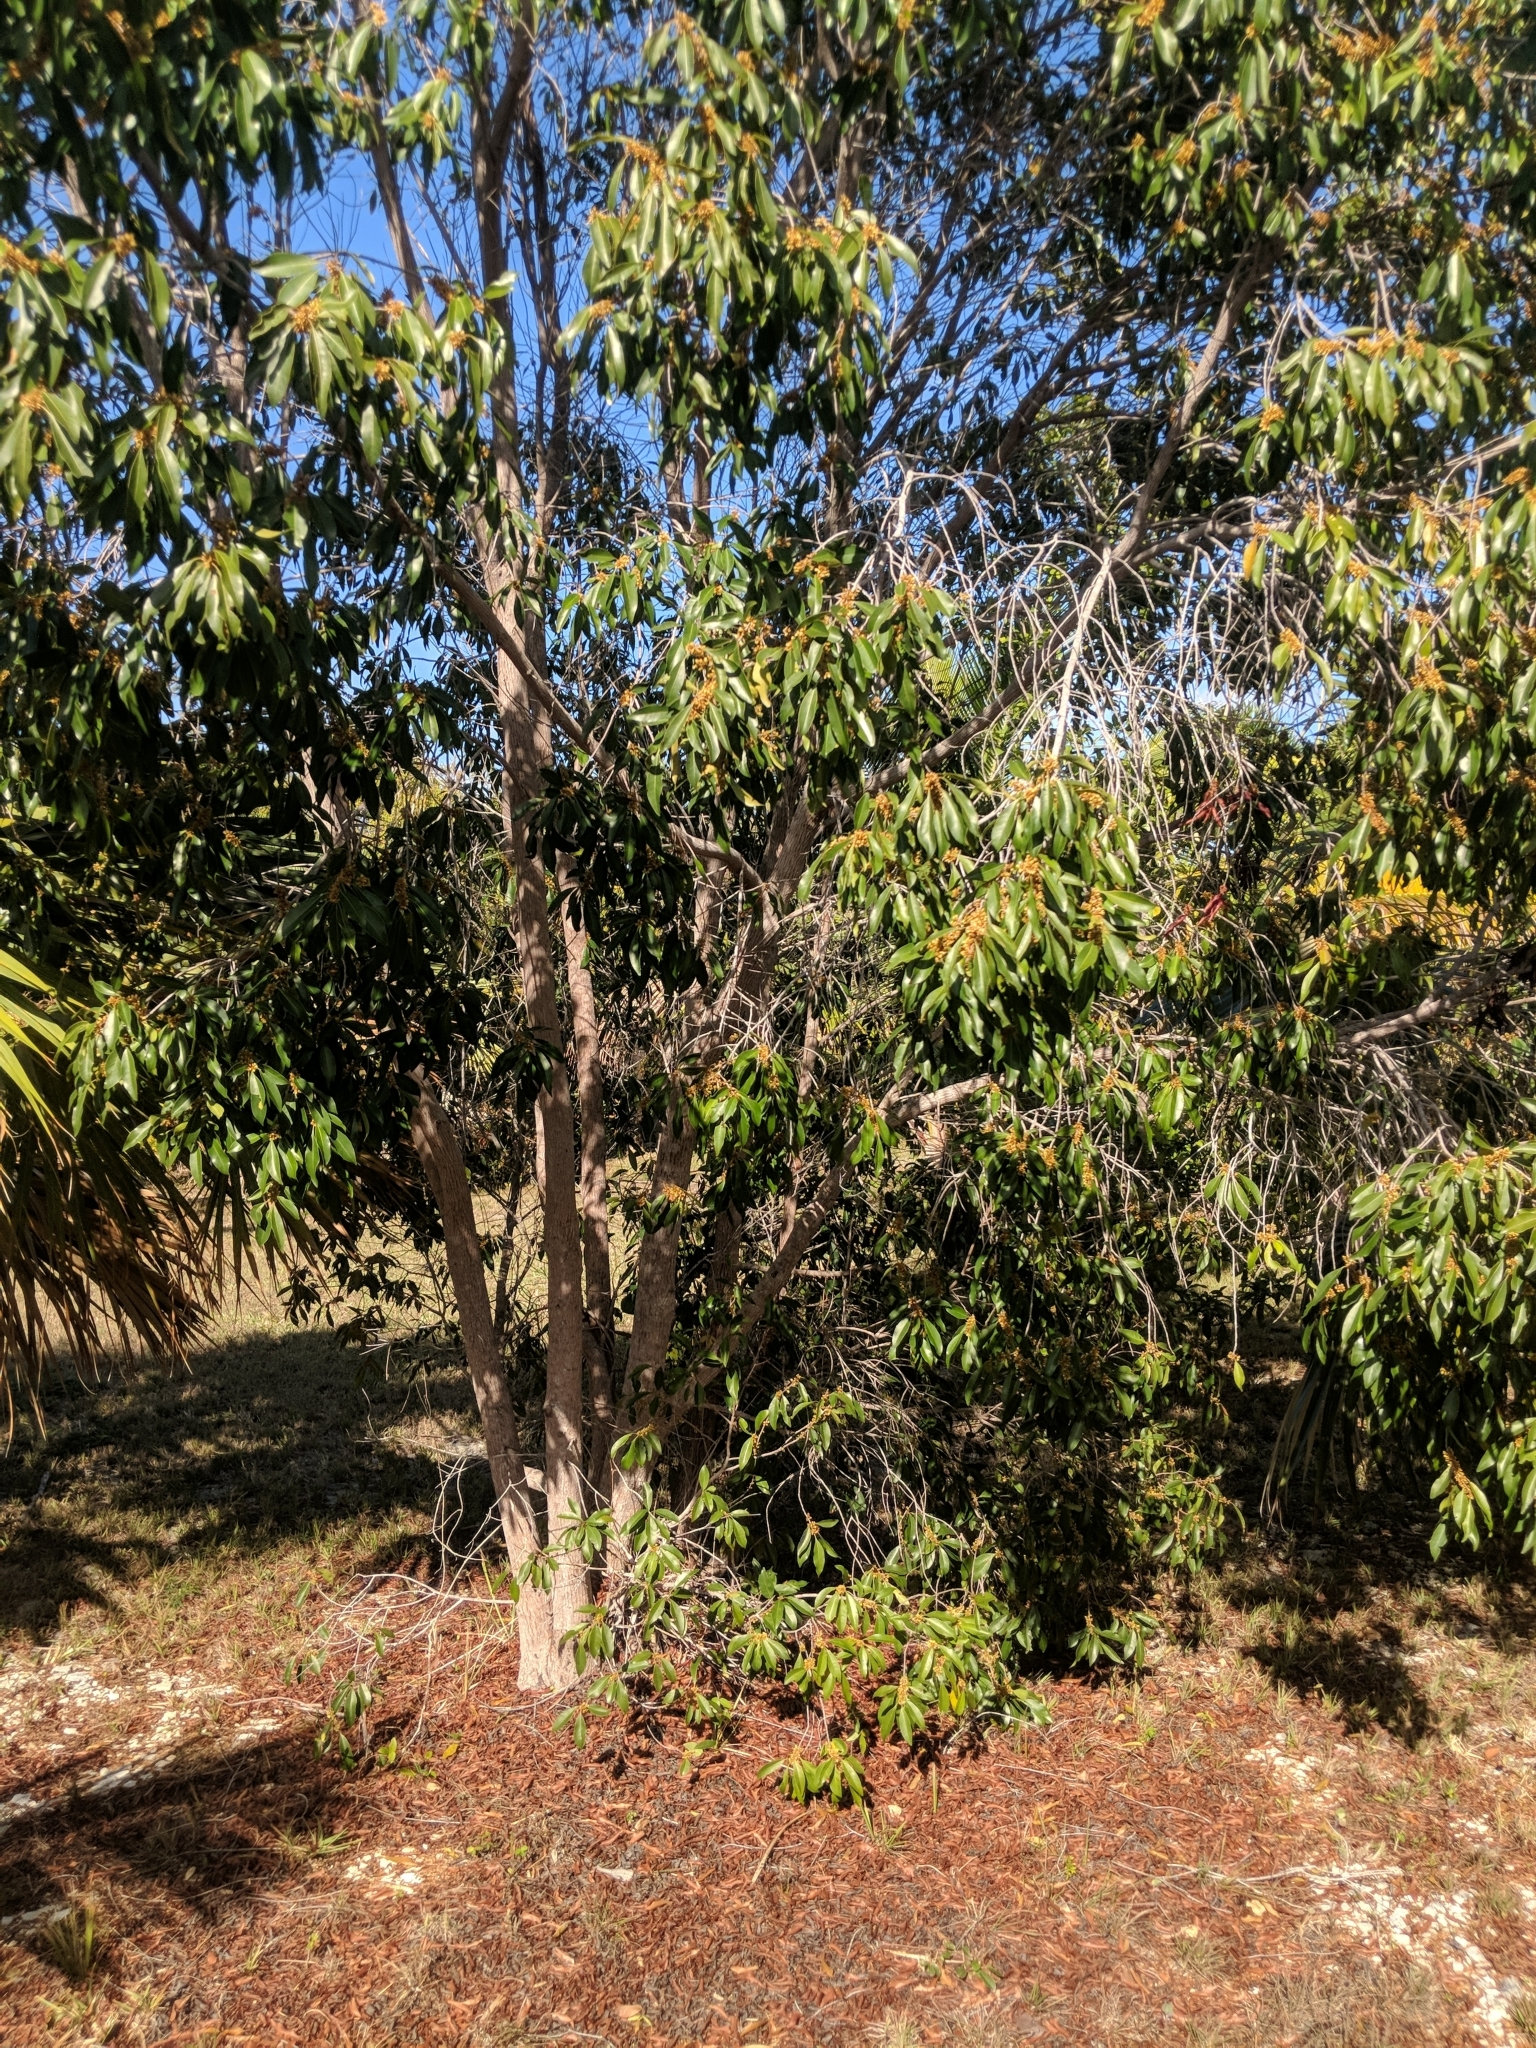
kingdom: Plantae
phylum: Tracheophyta
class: Magnoliopsida
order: Ericales
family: Sapotaceae
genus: Sideroxylon
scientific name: Sideroxylon salicifolium
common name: White bully
